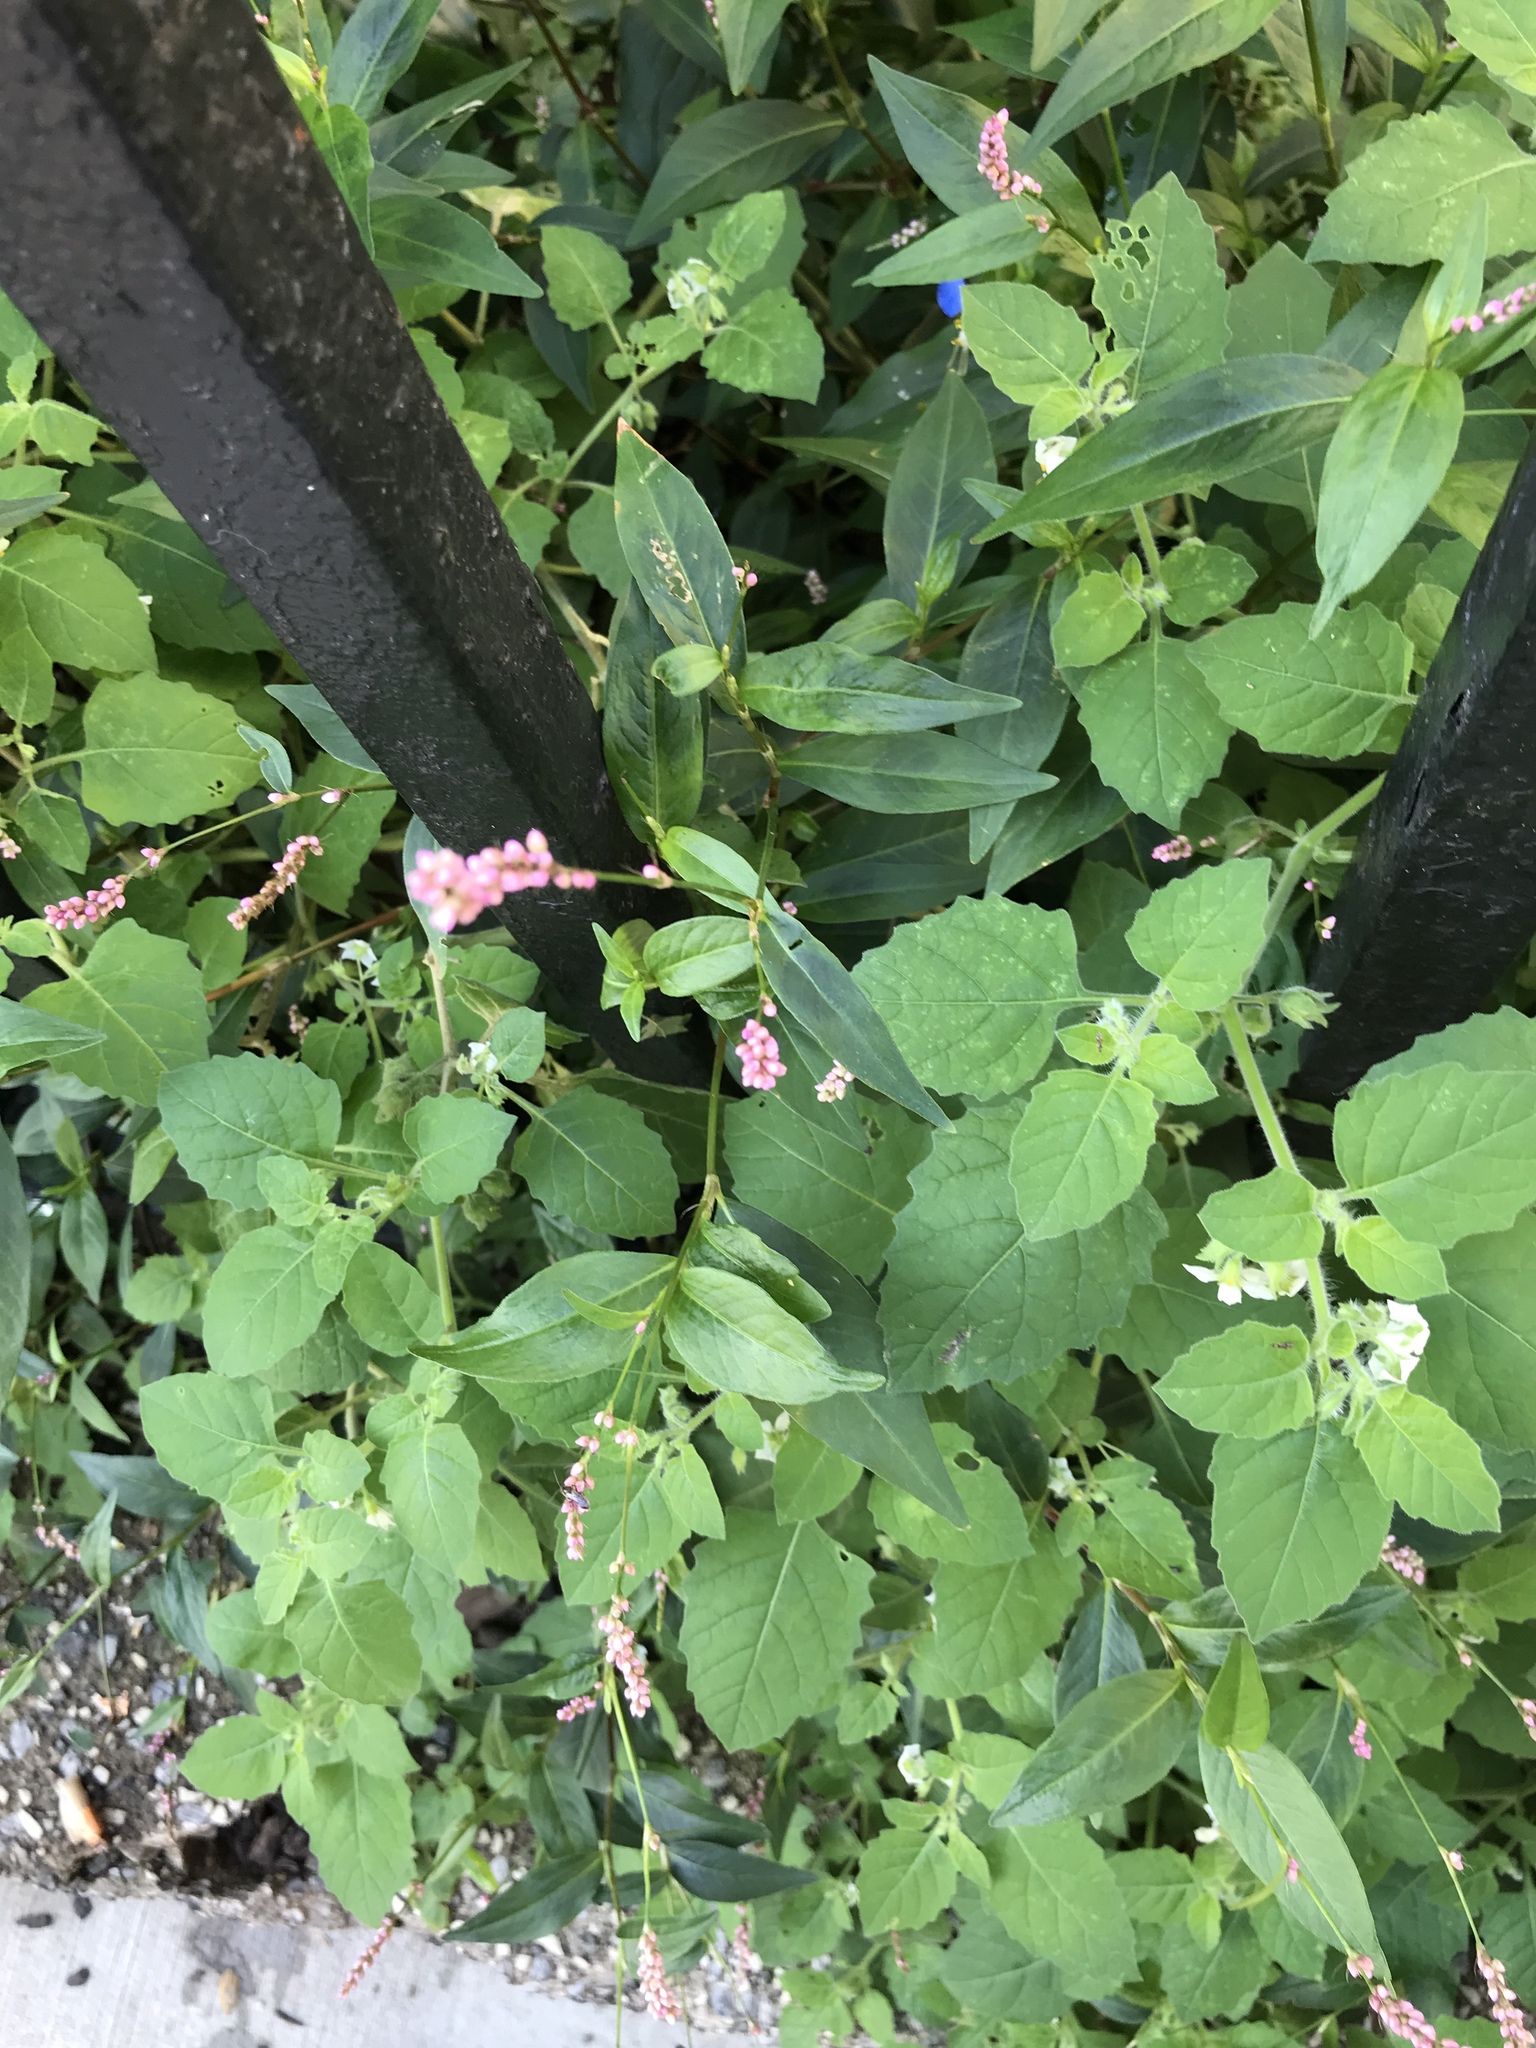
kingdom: Plantae
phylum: Tracheophyta
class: Magnoliopsida
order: Caryophyllales
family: Polygonaceae
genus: Persicaria
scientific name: Persicaria longiseta
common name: Bristly lady's-thumb
